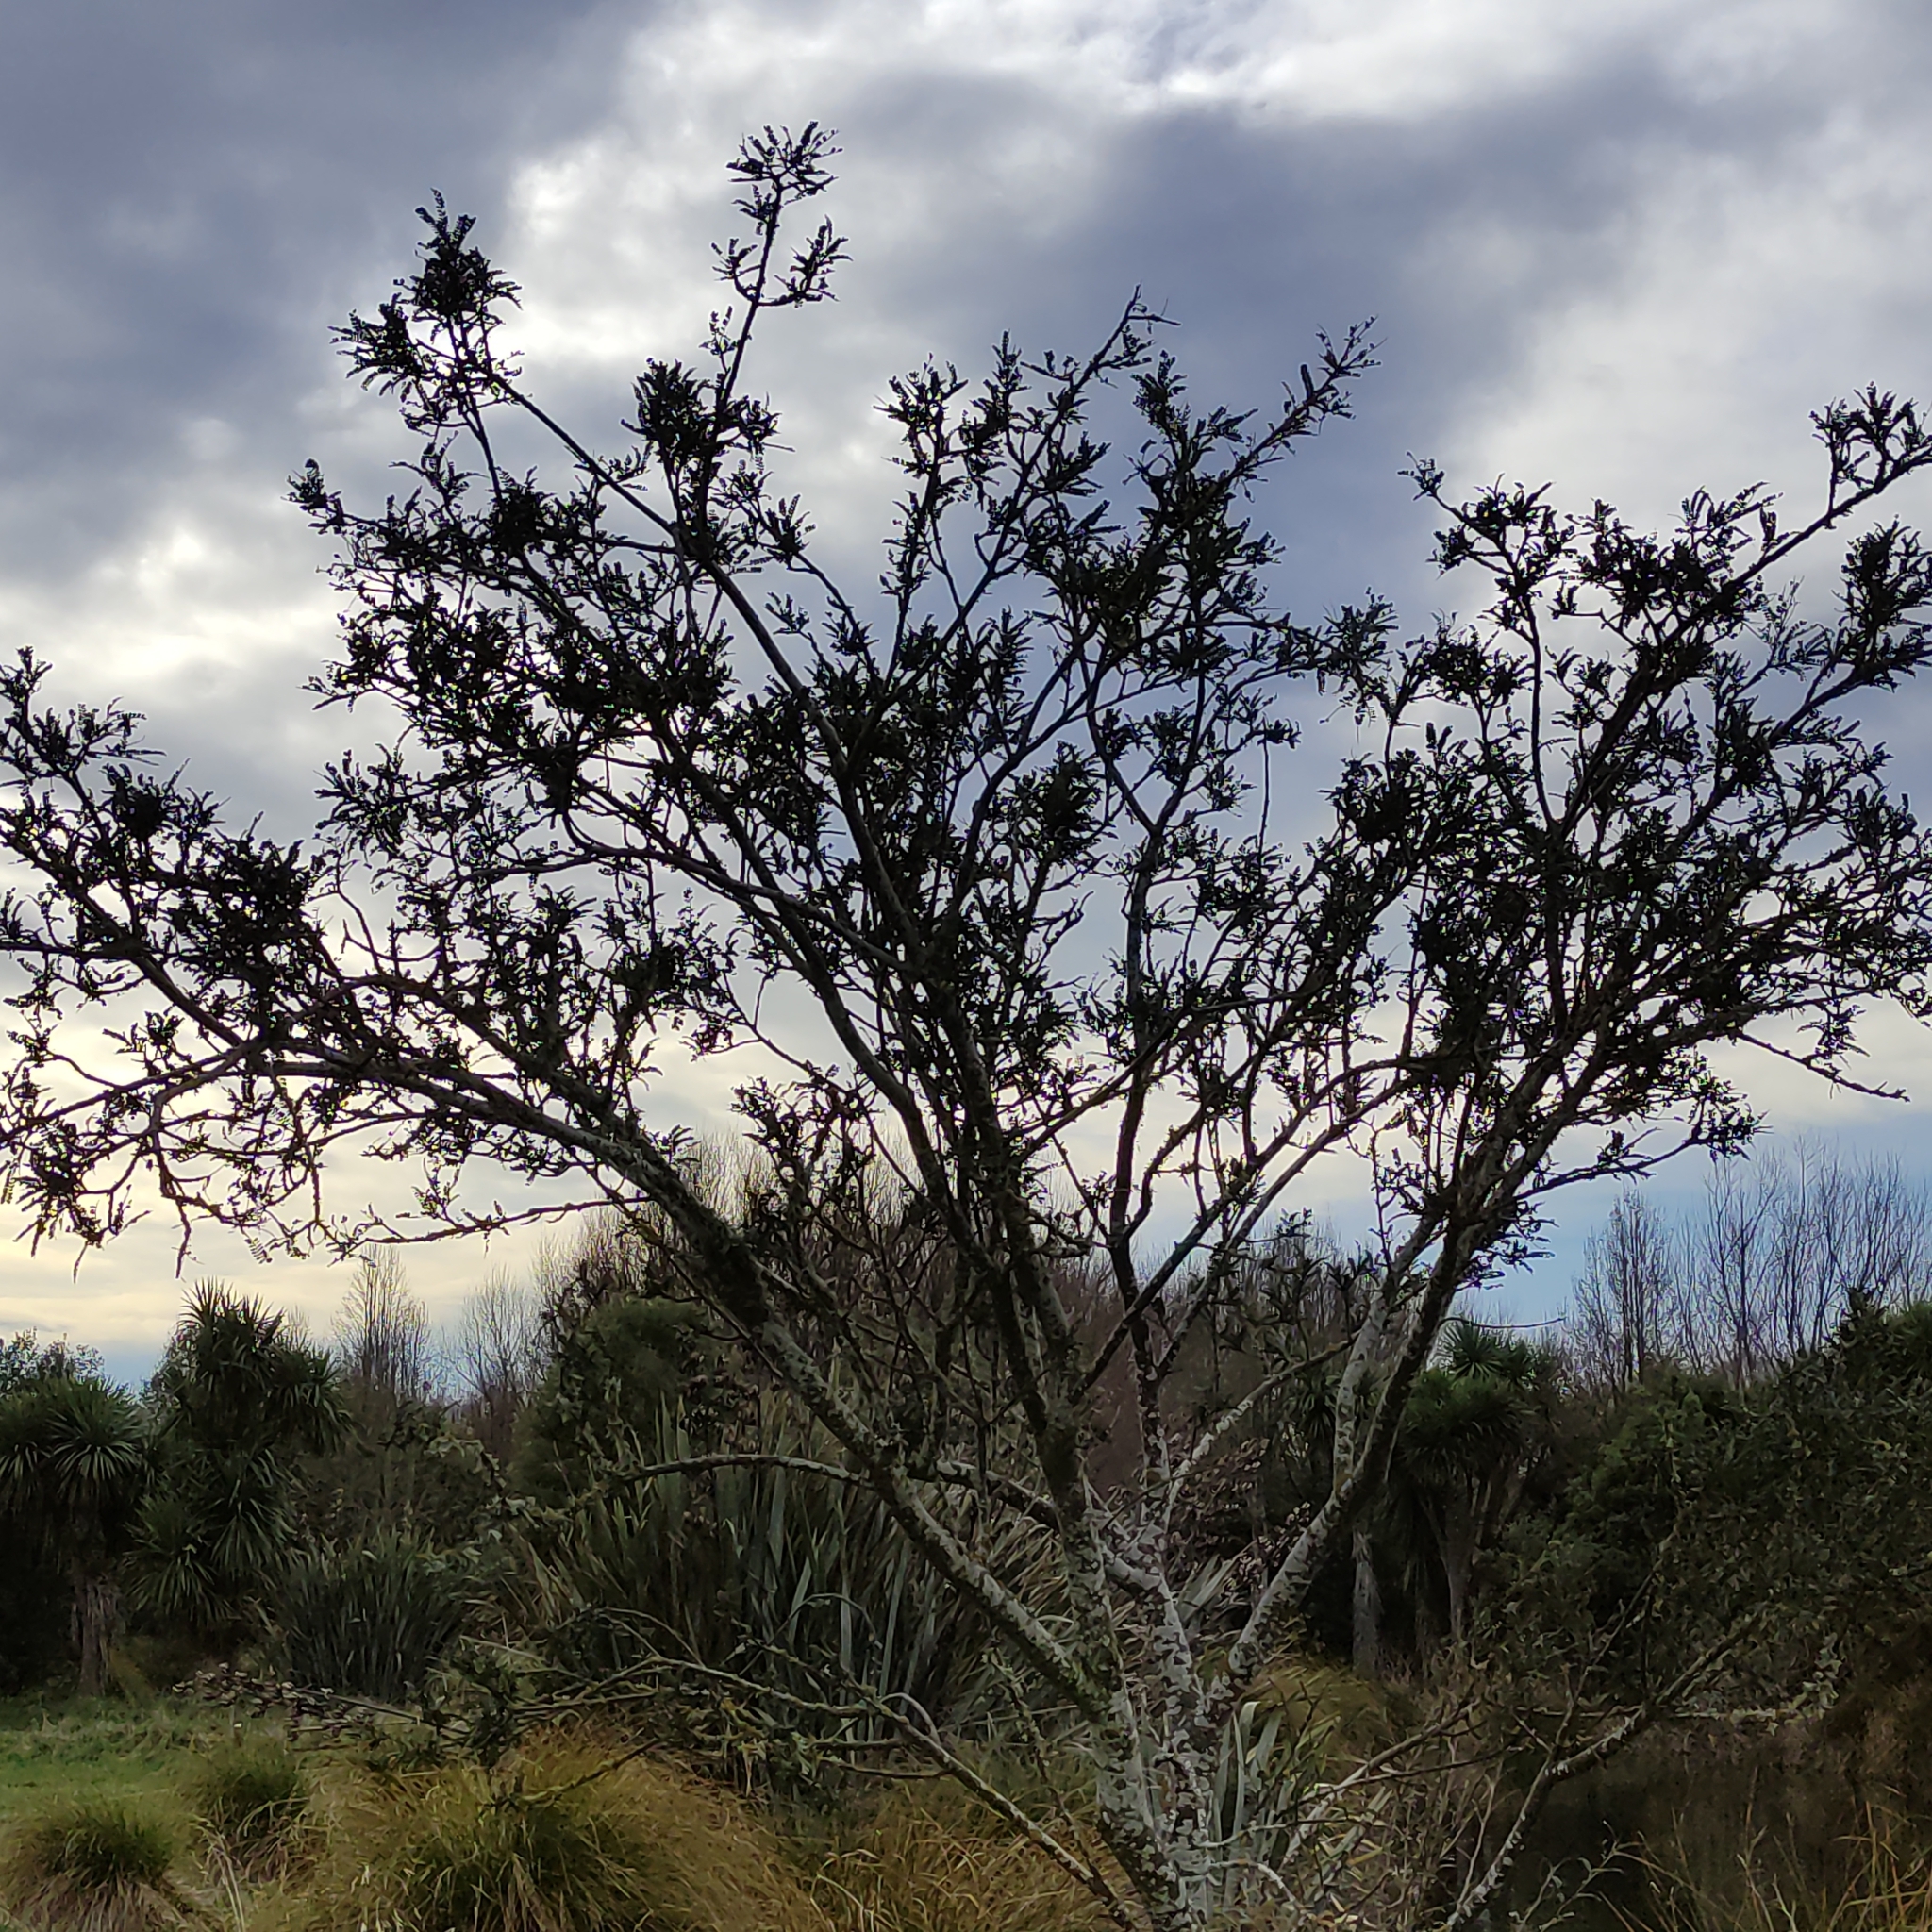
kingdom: Plantae
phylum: Tracheophyta
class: Magnoliopsida
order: Fabales
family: Fabaceae
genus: Sophora
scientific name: Sophora microphylla
